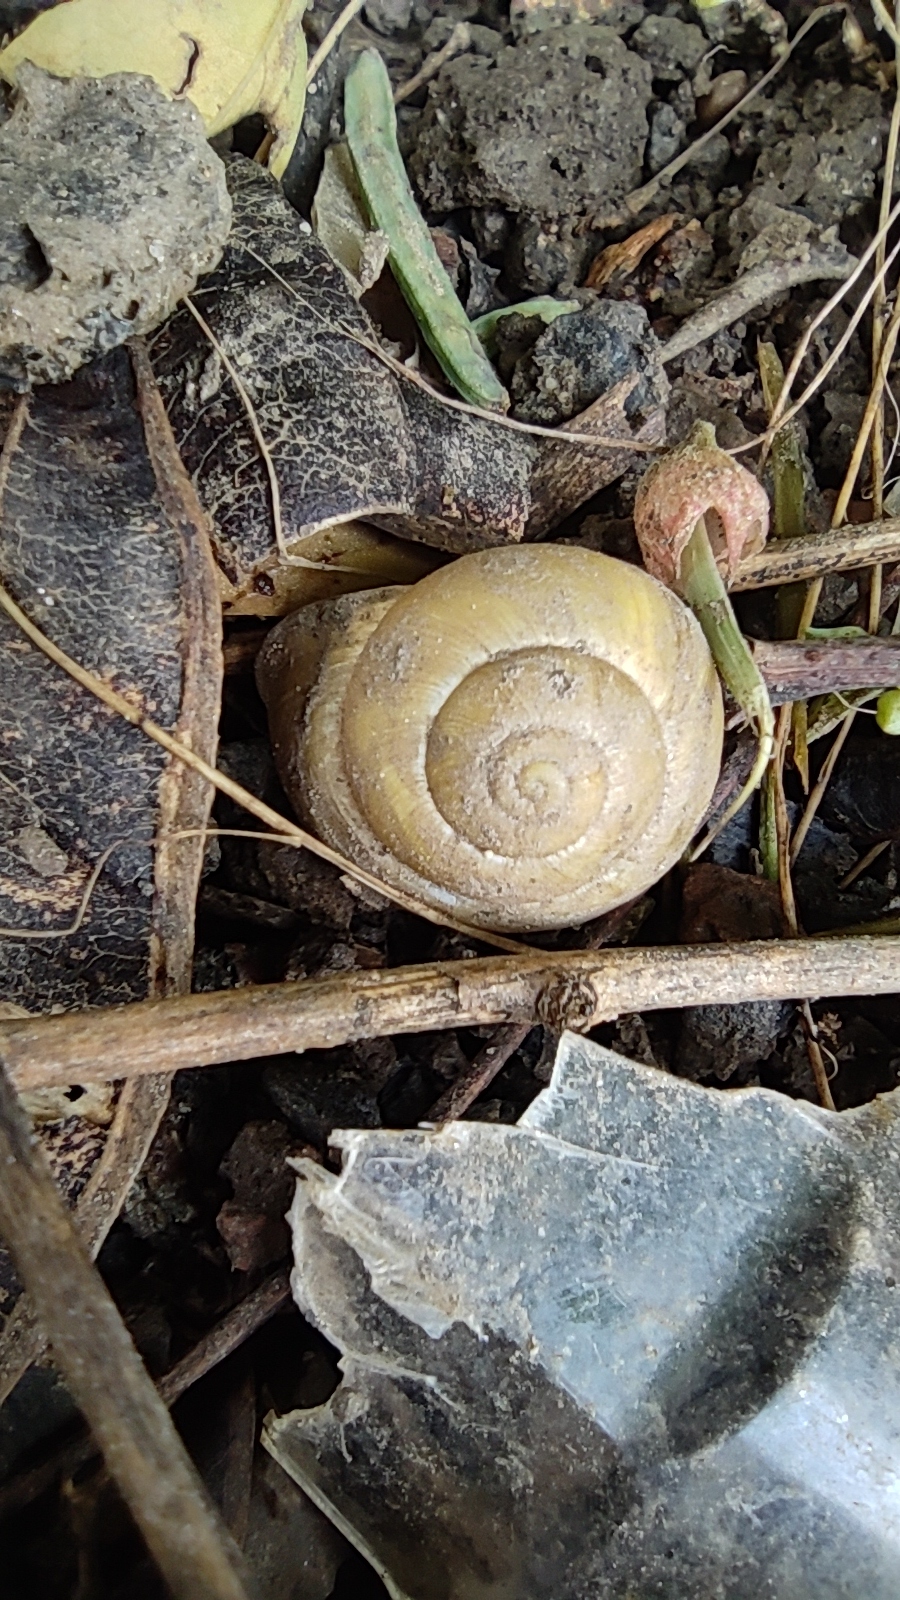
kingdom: Animalia
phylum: Mollusca
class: Gastropoda
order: Stylommatophora
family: Helicidae
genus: Cepaea
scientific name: Cepaea hortensis
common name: White-lip gardensnail
